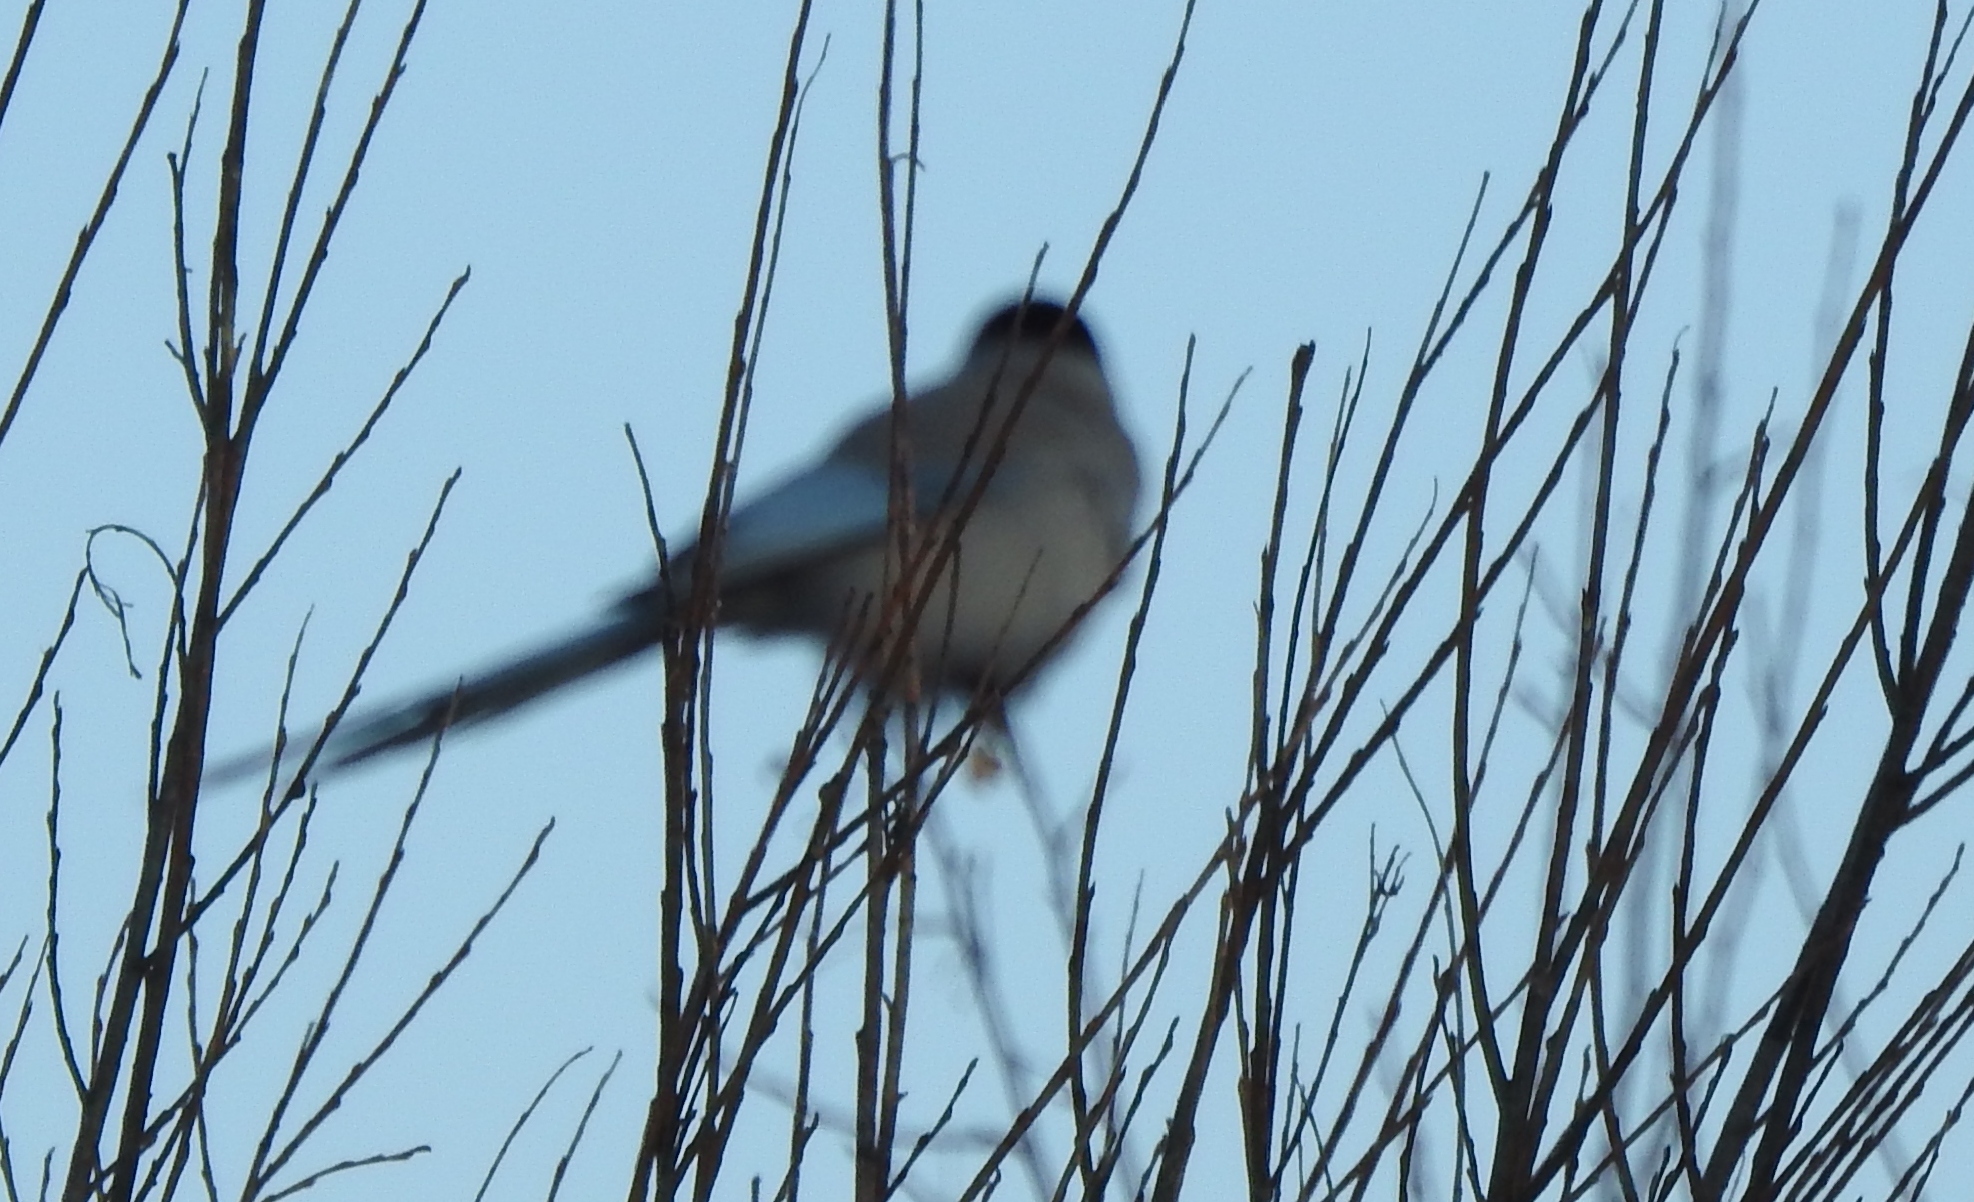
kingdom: Animalia
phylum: Chordata
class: Aves
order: Passeriformes
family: Corvidae
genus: Cyanopica
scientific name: Cyanopica cyanus
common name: Azure-winged magpie
